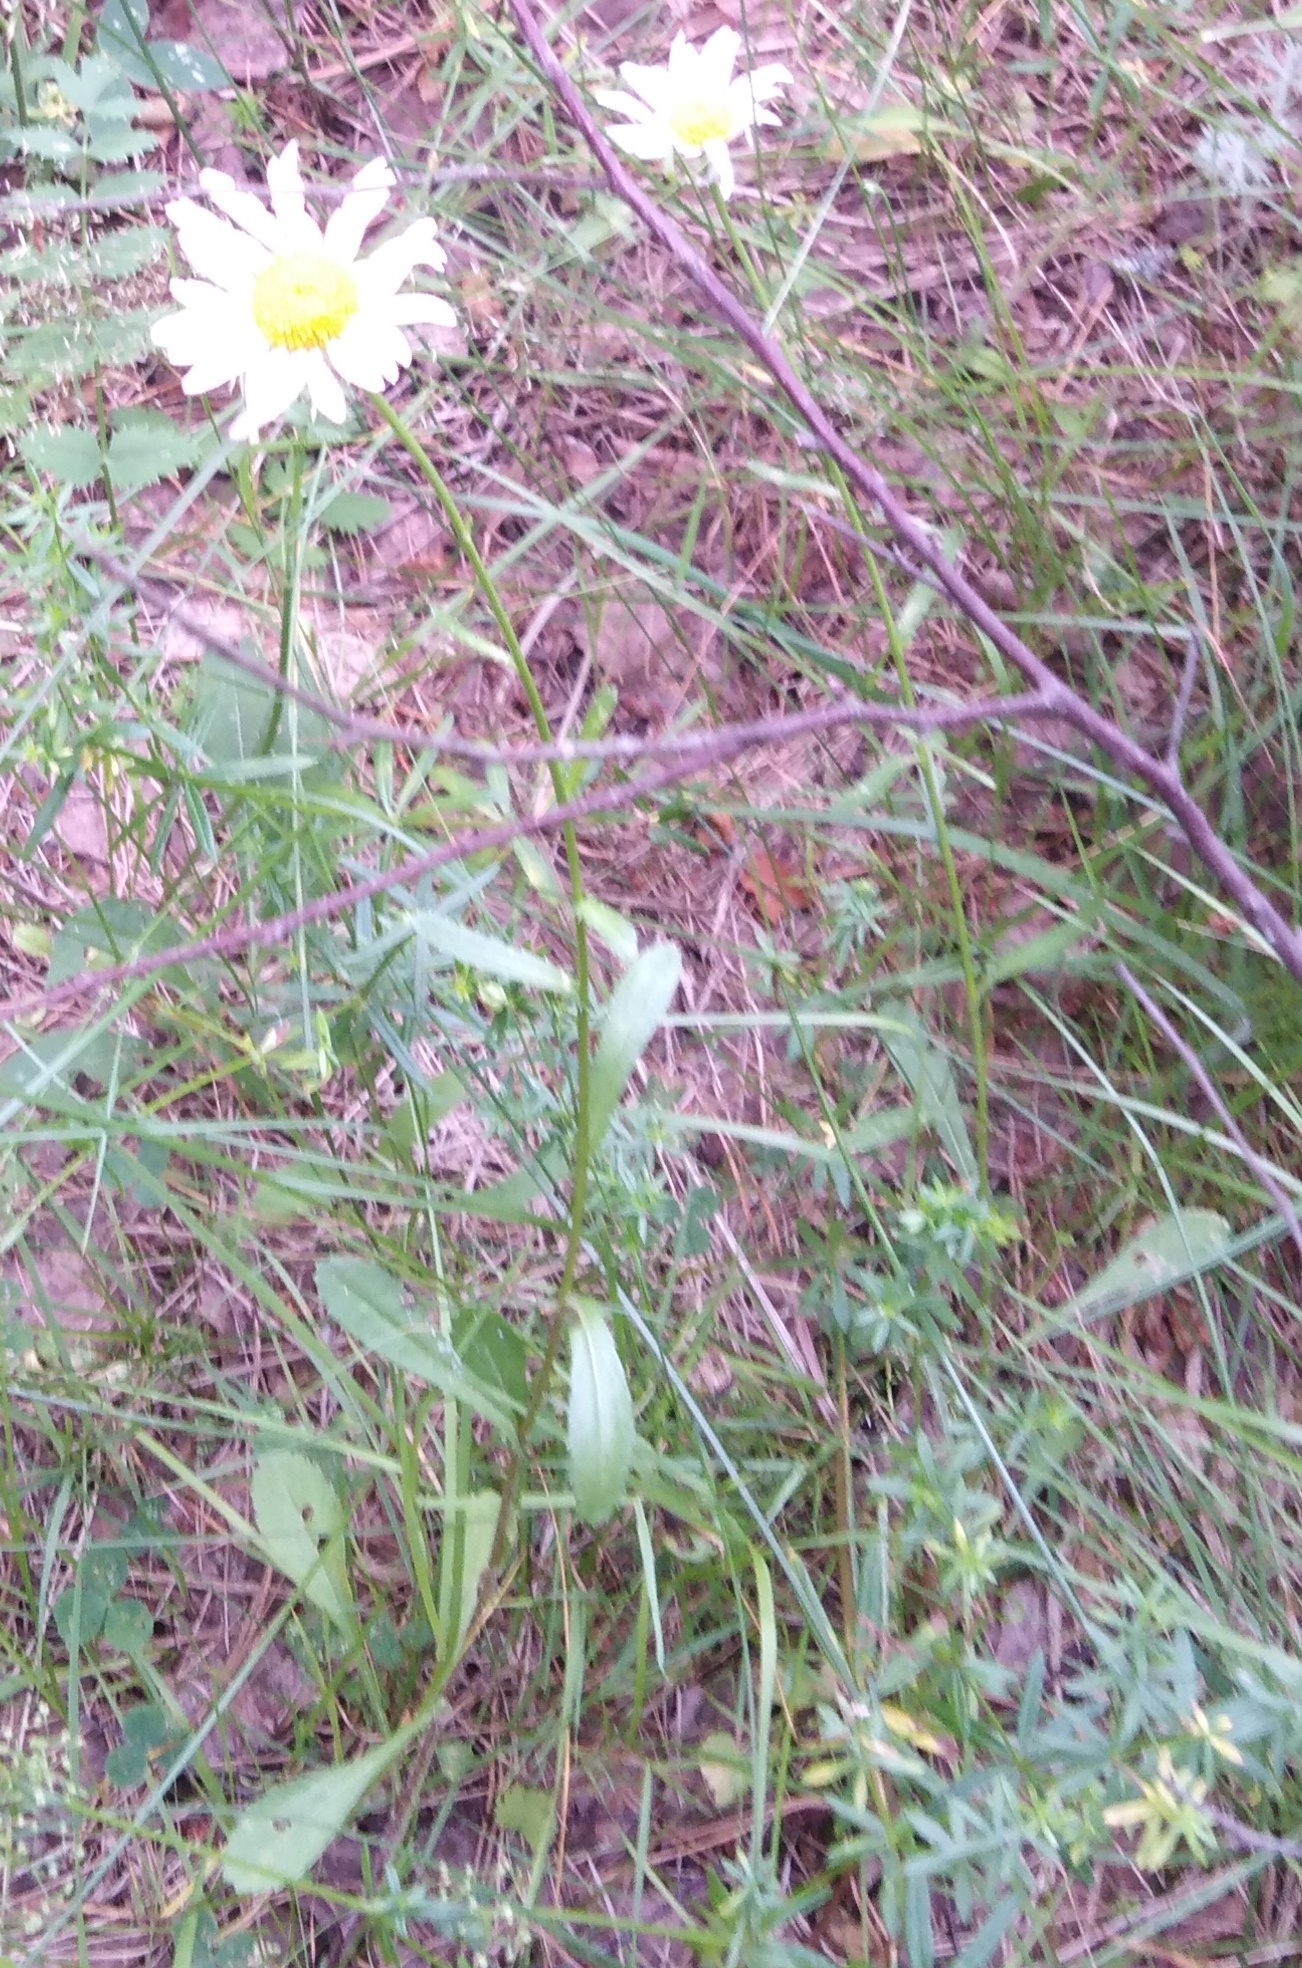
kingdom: Plantae
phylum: Tracheophyta
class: Magnoliopsida
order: Asterales
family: Asteraceae
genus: Leucanthemum
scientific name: Leucanthemum vulgare
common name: Oxeye daisy
